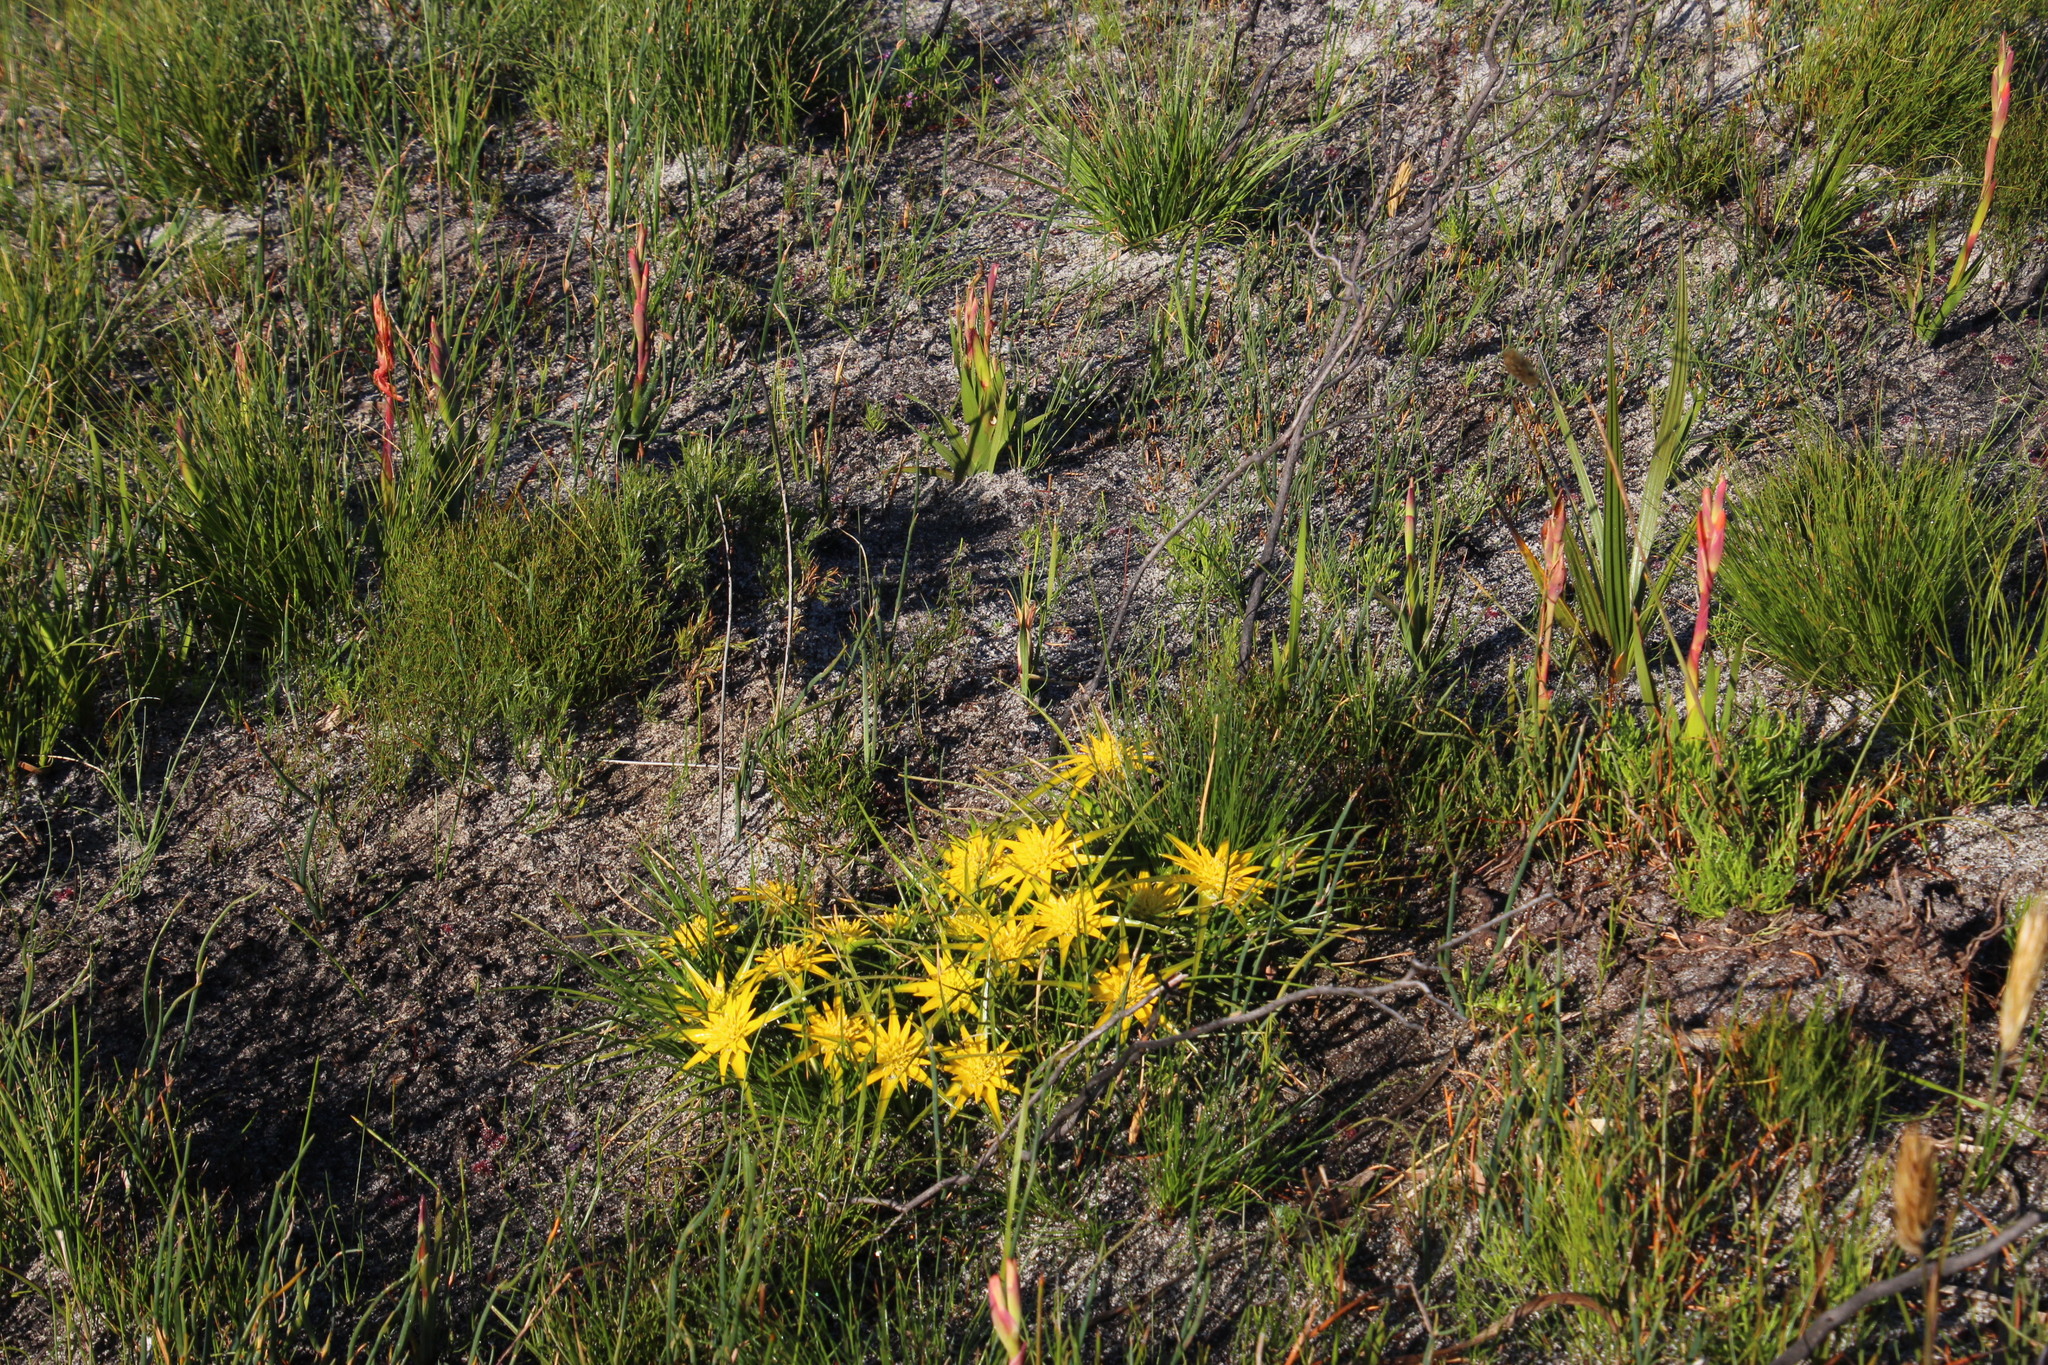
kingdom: Plantae
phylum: Tracheophyta
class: Liliopsida
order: Poales
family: Cyperaceae
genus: Ficinia
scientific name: Ficinia radiata
